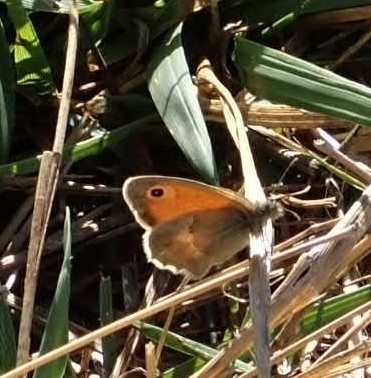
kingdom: Animalia
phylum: Arthropoda
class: Insecta
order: Lepidoptera
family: Nymphalidae
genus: Coenonympha
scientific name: Coenonympha pamphilus
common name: Small heath
